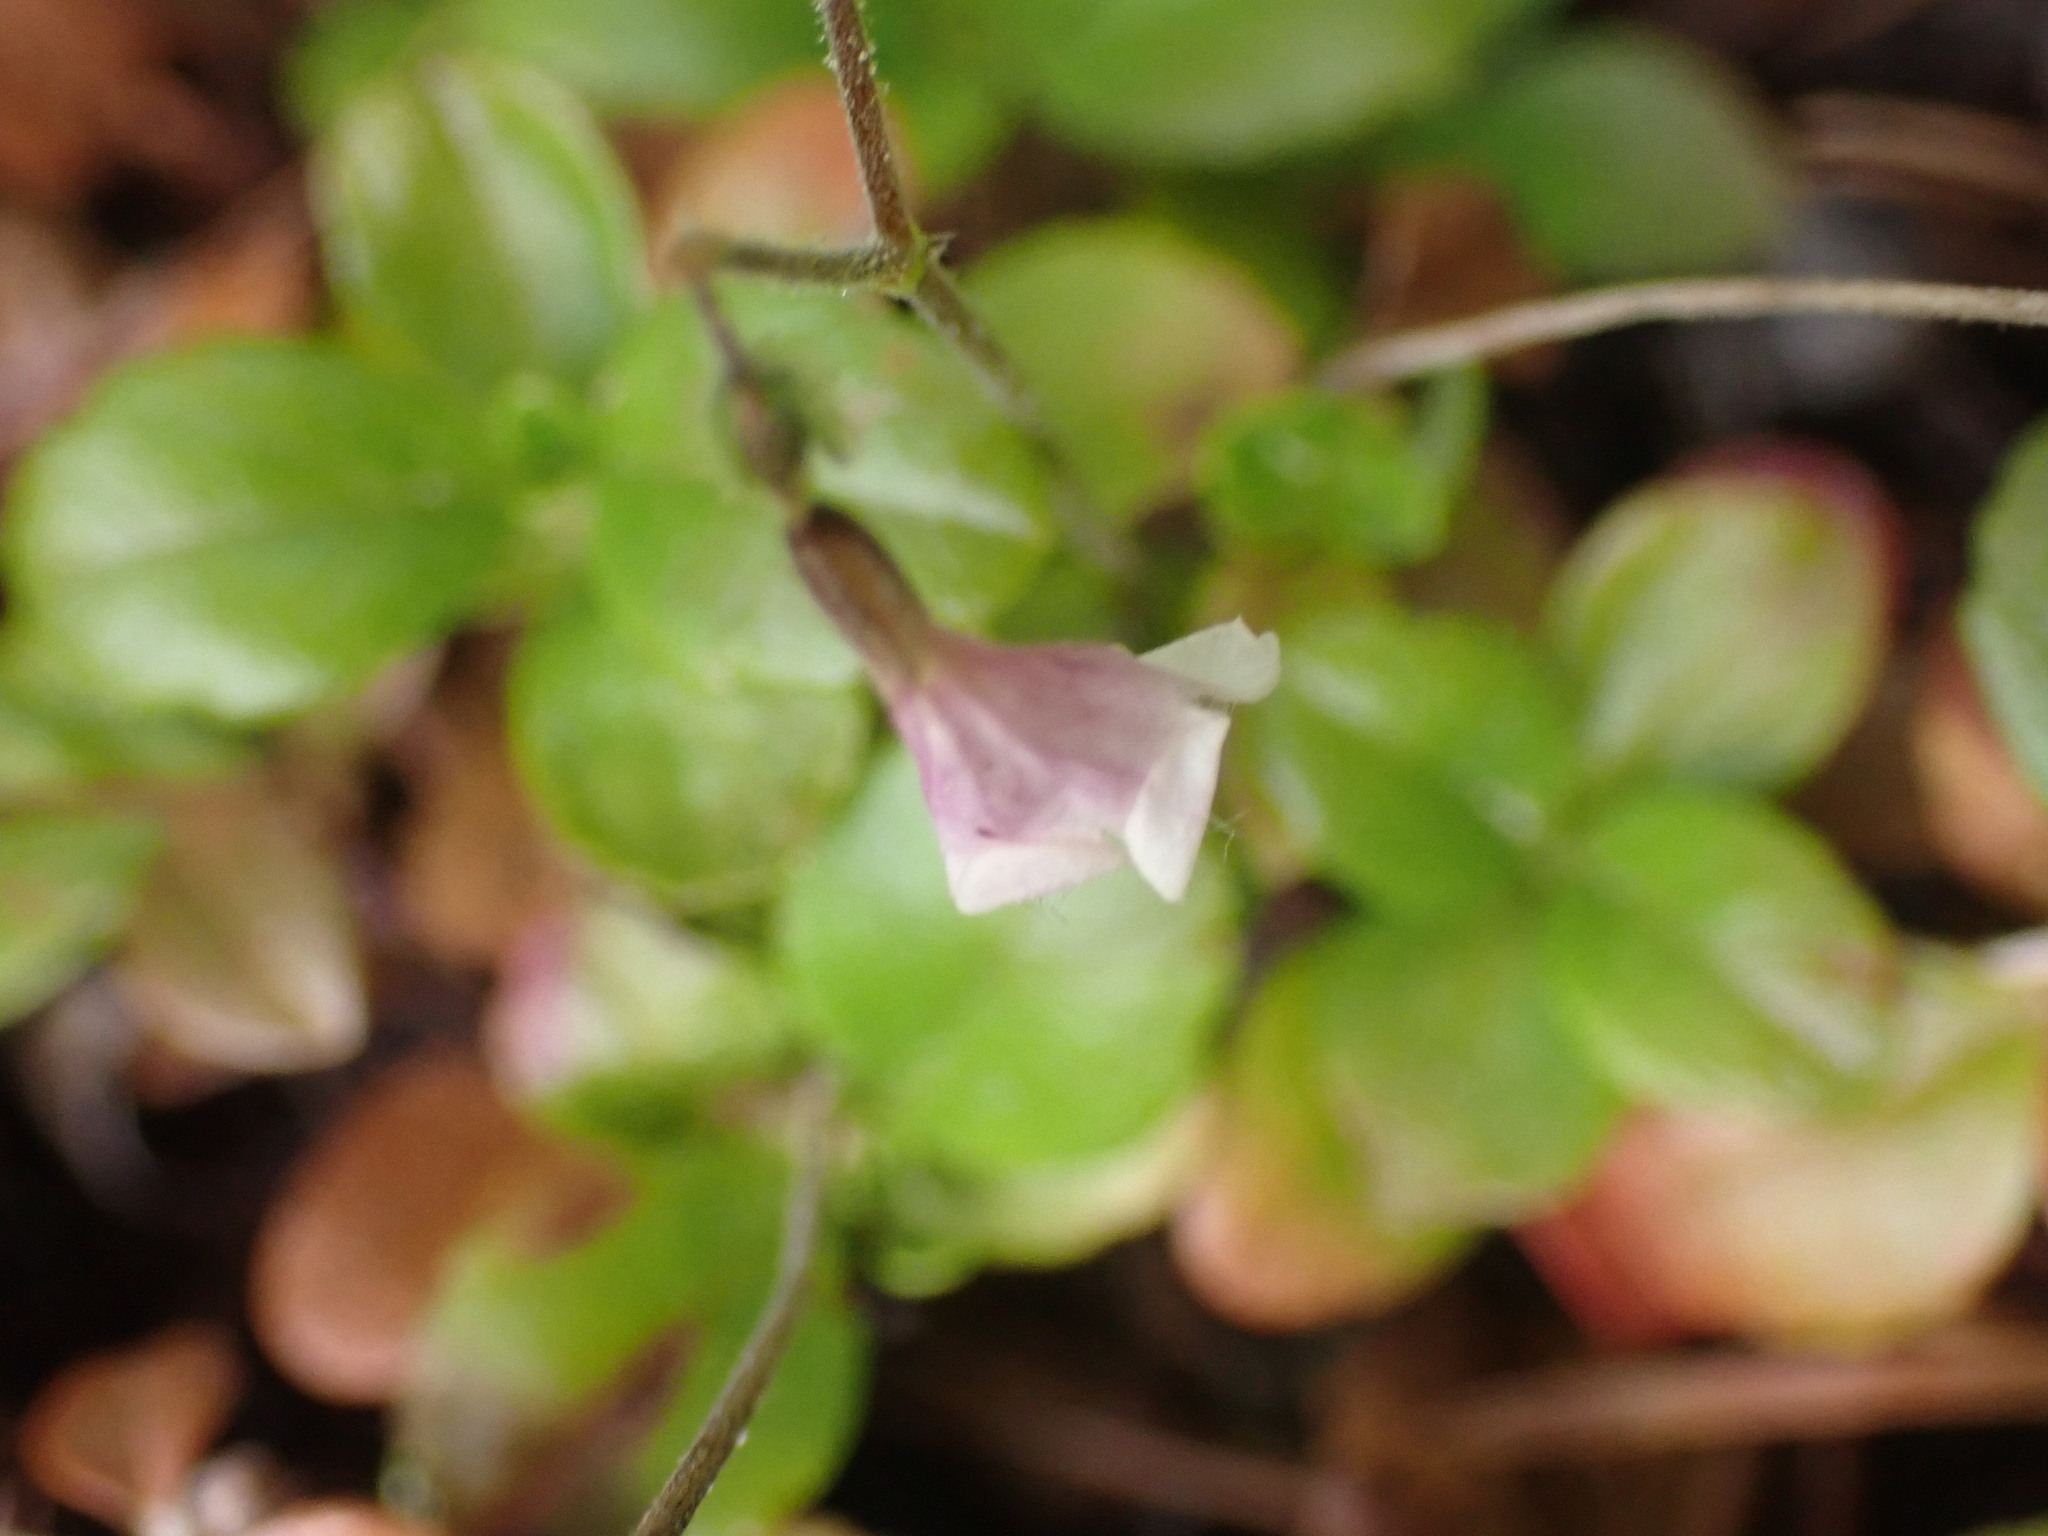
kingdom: Plantae
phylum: Tracheophyta
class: Magnoliopsida
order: Dipsacales
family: Caprifoliaceae
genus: Linnaea
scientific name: Linnaea borealis
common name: Twinflower
